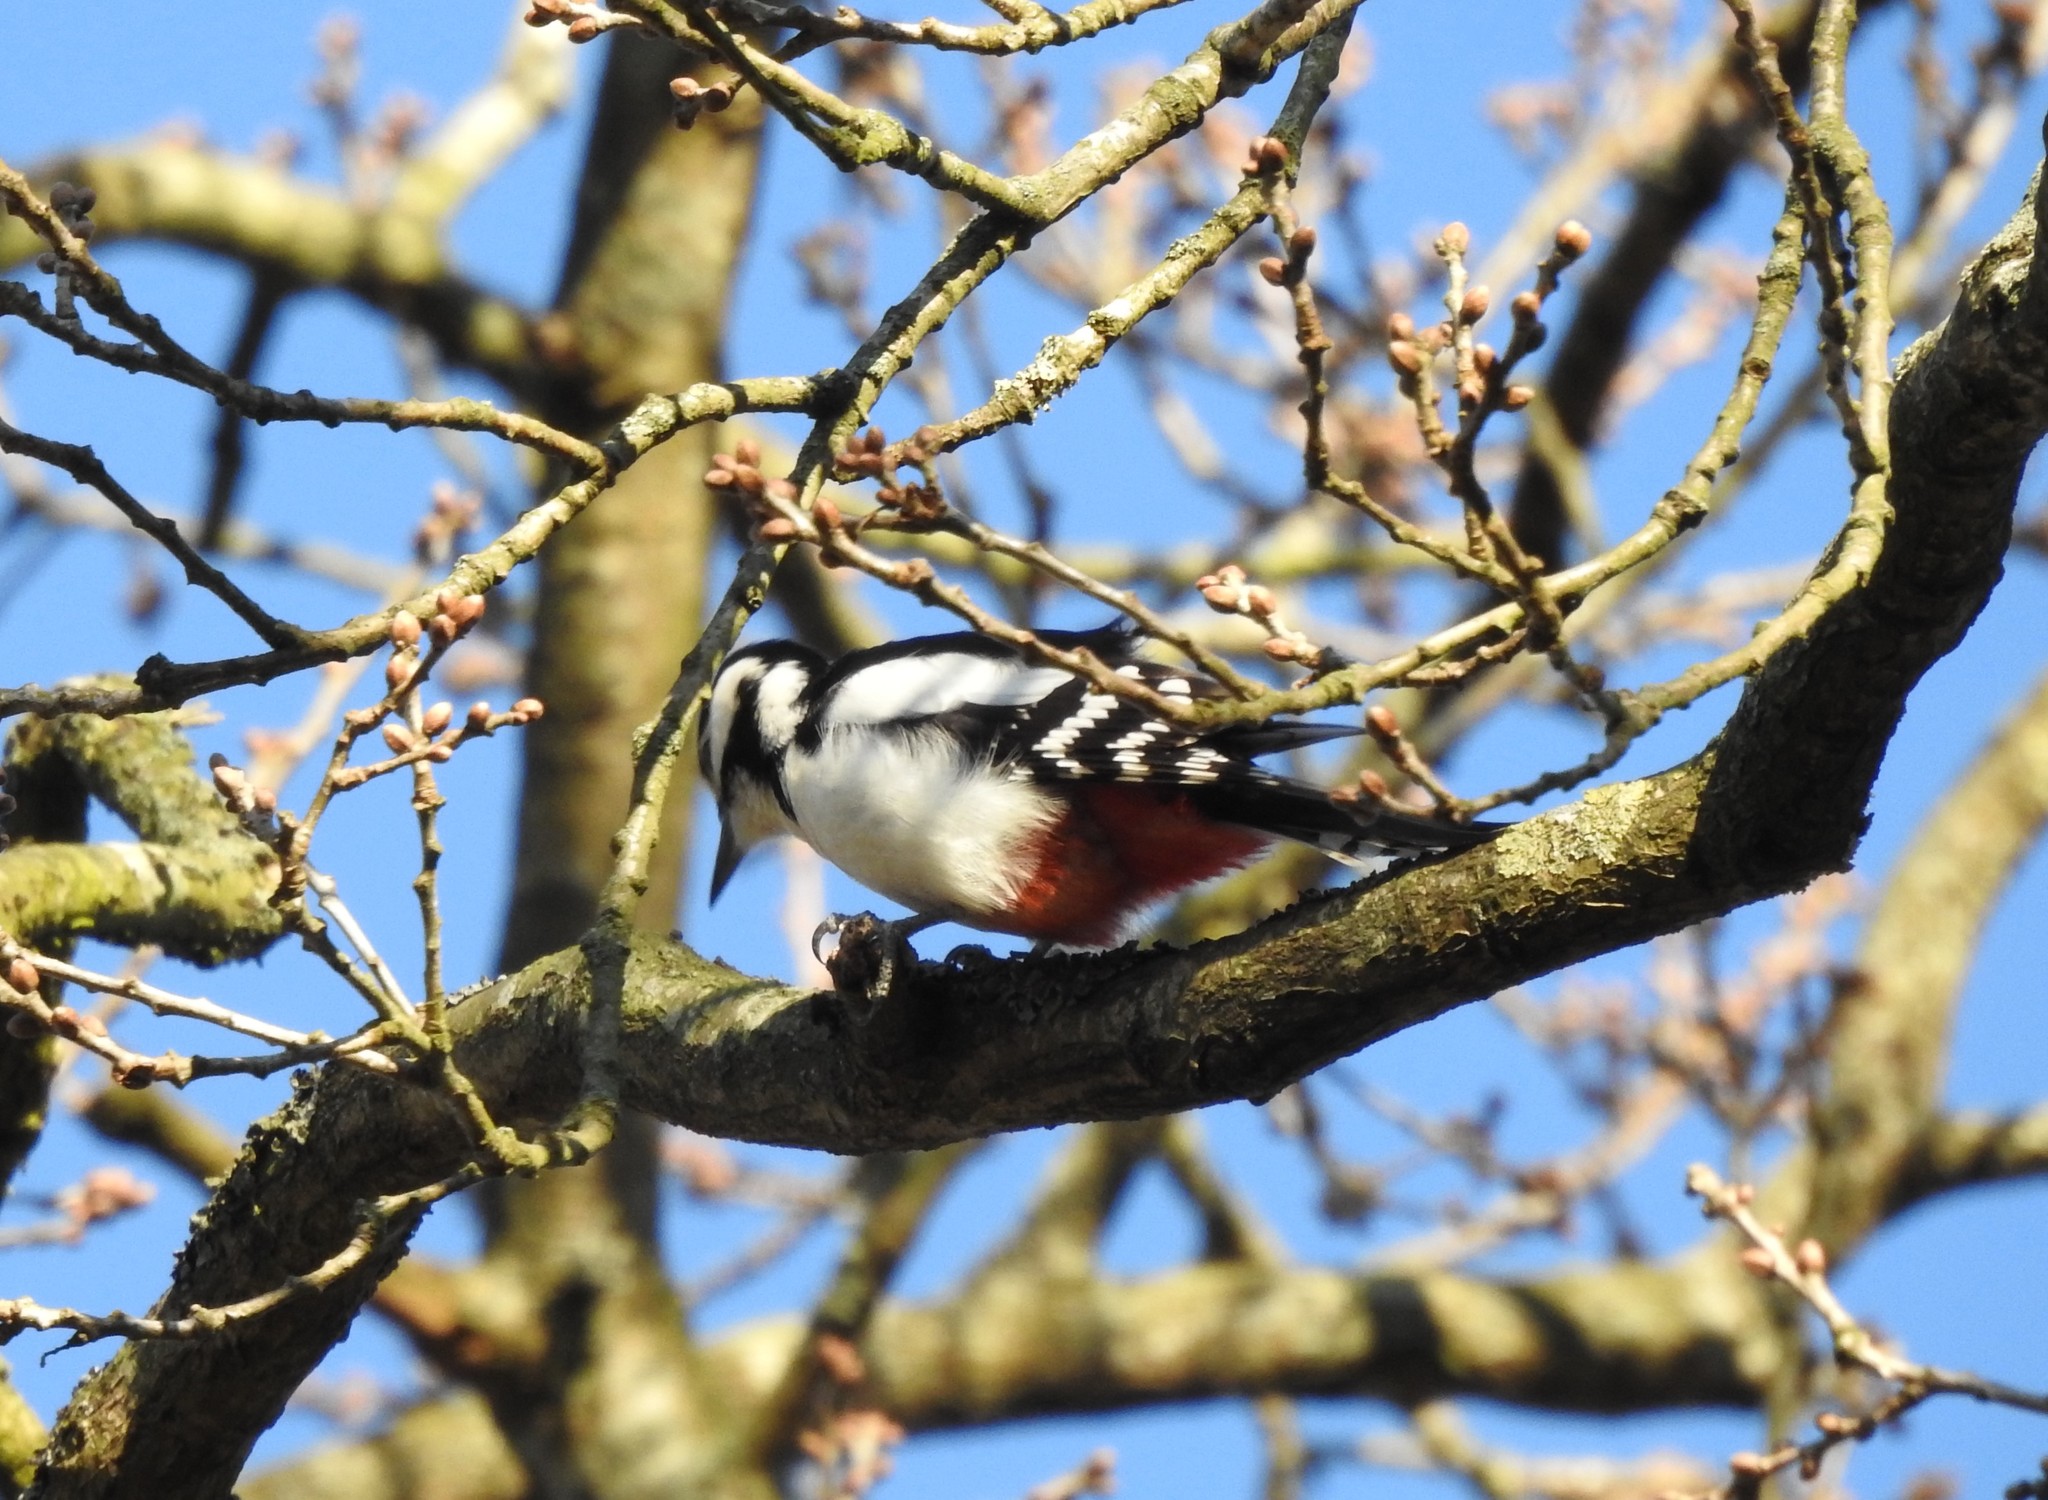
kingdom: Animalia
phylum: Chordata
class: Aves
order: Piciformes
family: Picidae
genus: Dendrocopos
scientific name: Dendrocopos major
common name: Great spotted woodpecker
